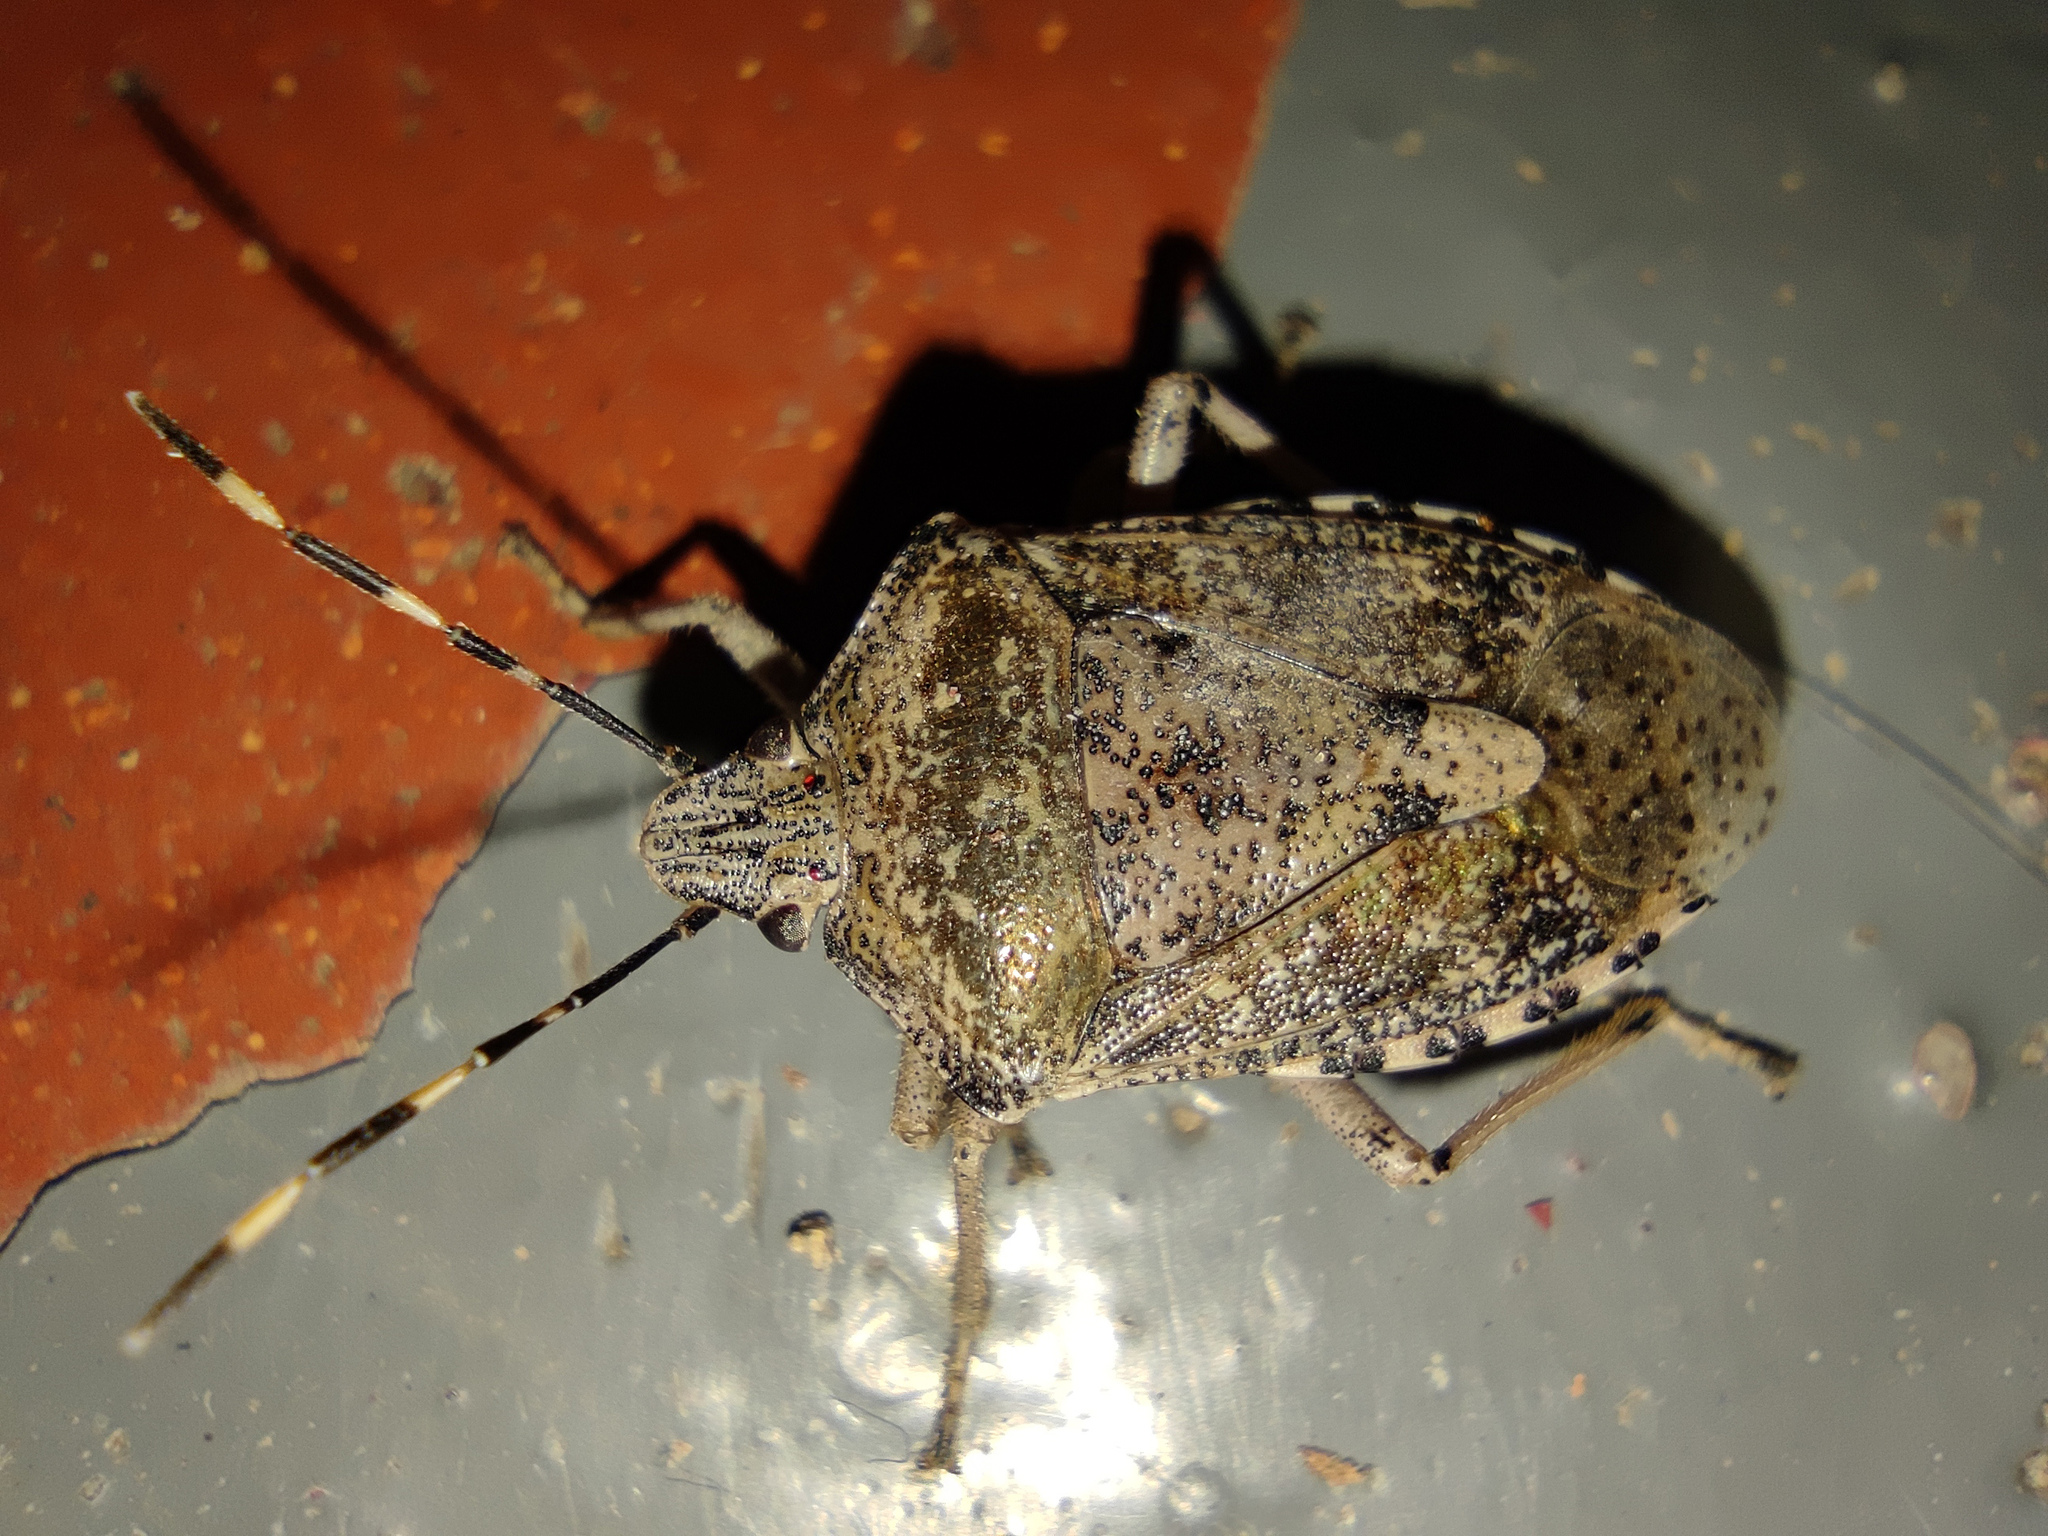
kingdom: Animalia
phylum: Arthropoda
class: Insecta
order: Hemiptera
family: Pentatomidae
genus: Rhaphigaster
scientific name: Rhaphigaster nebulosa
